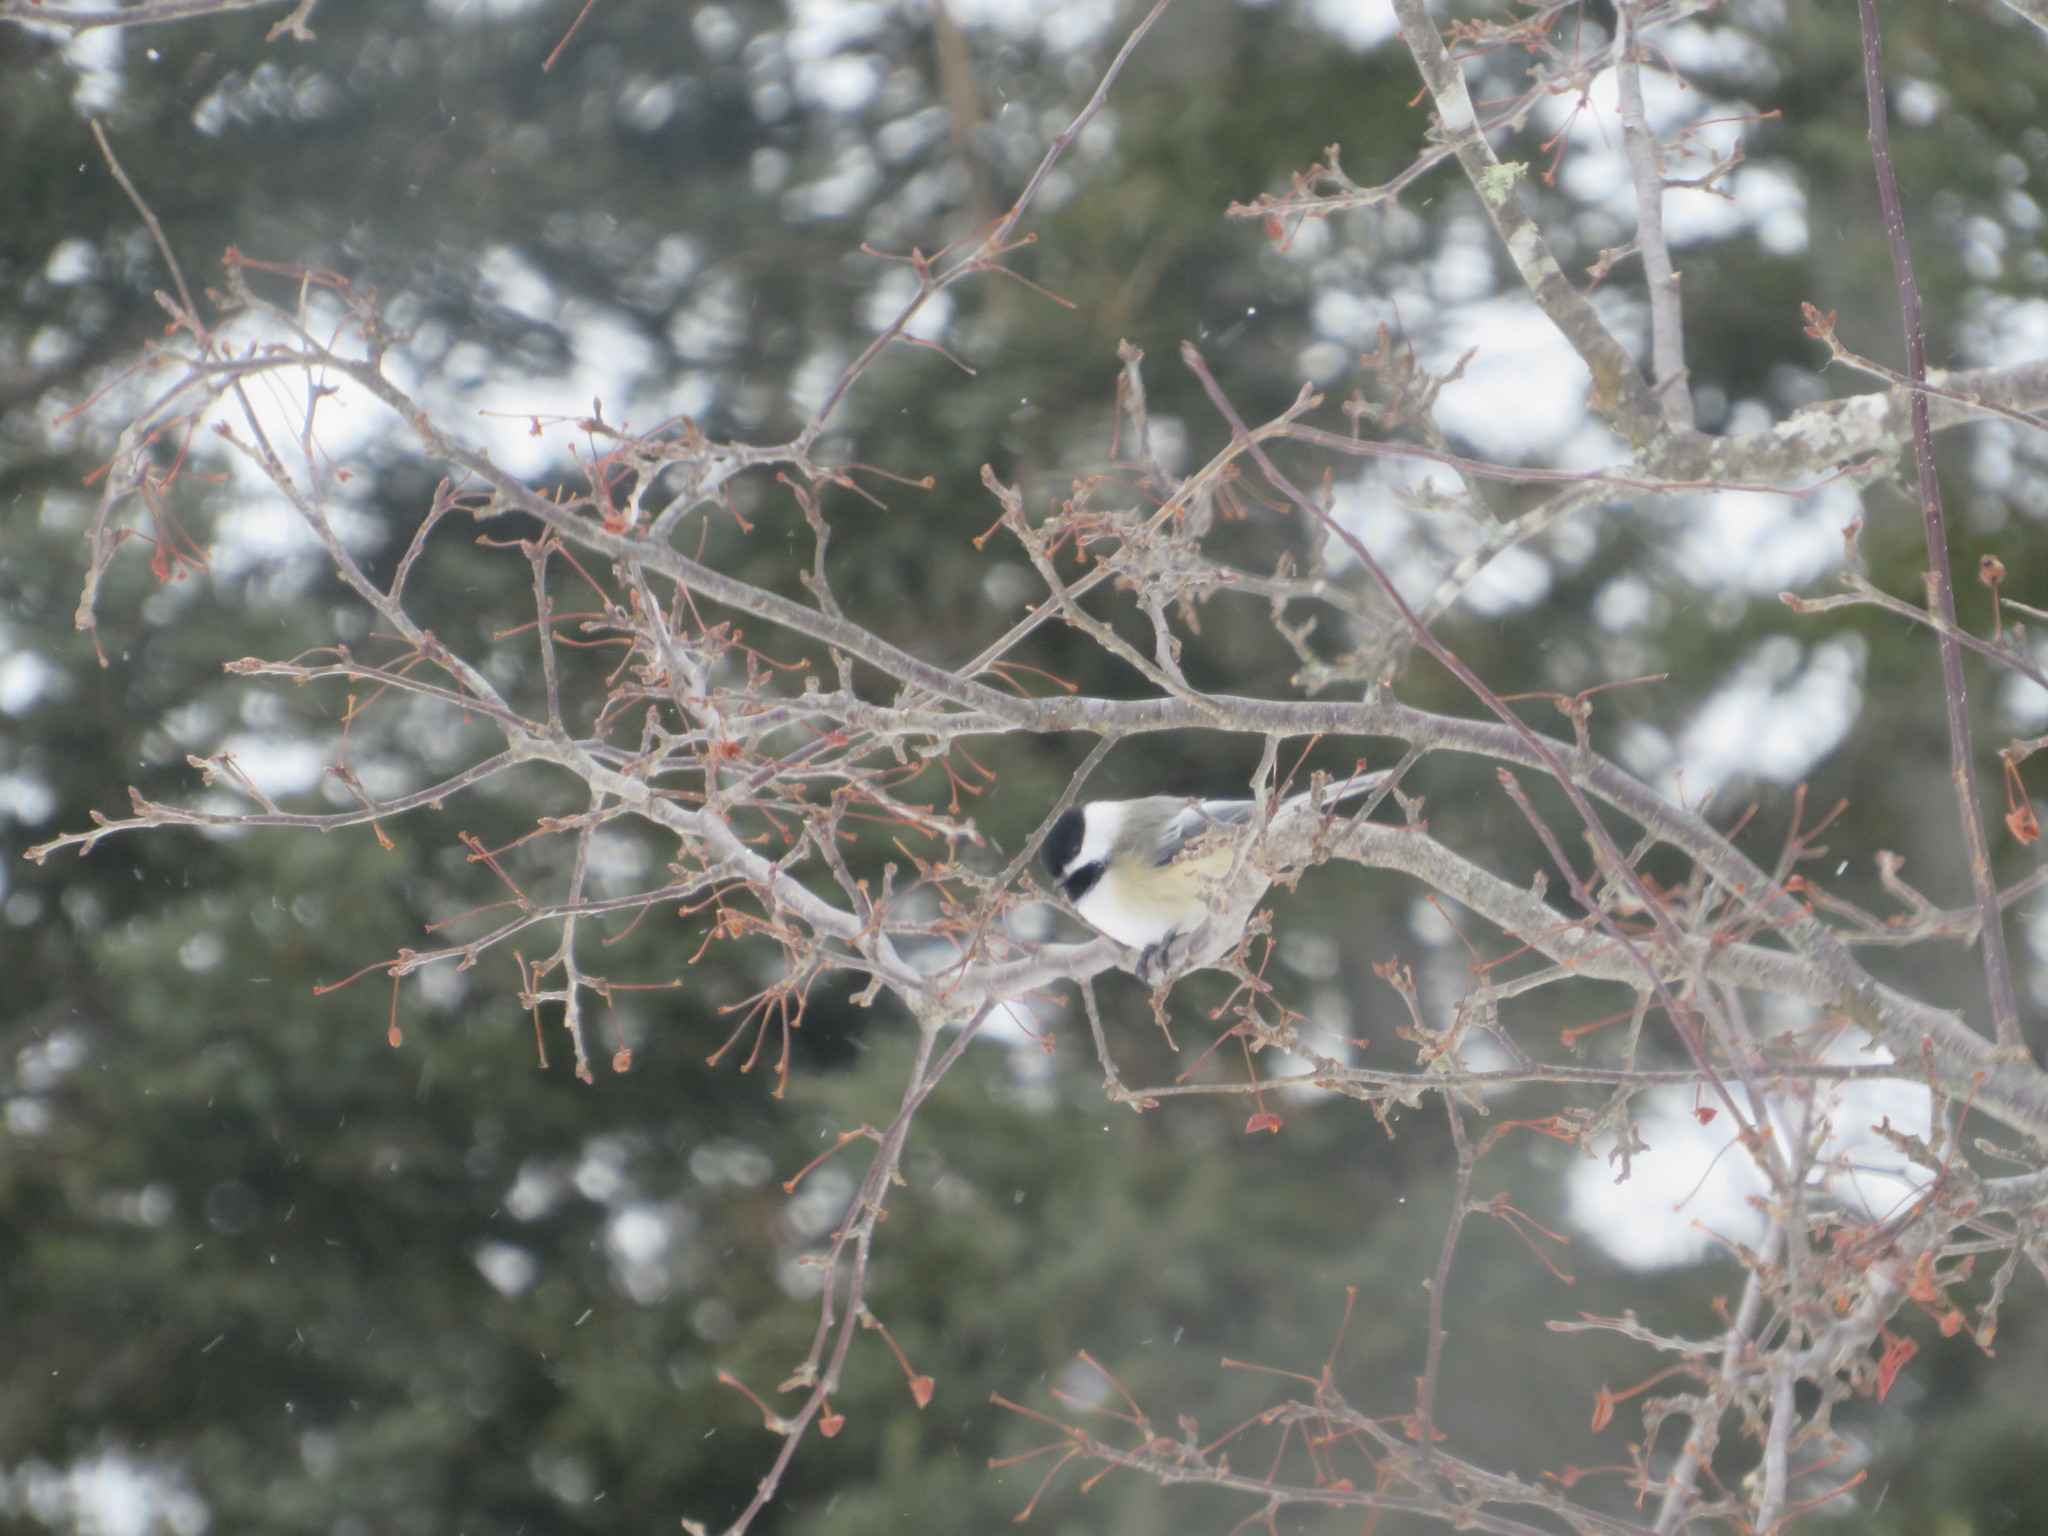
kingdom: Animalia
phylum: Chordata
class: Aves
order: Passeriformes
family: Paridae
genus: Poecile
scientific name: Poecile atricapillus
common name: Black-capped chickadee
